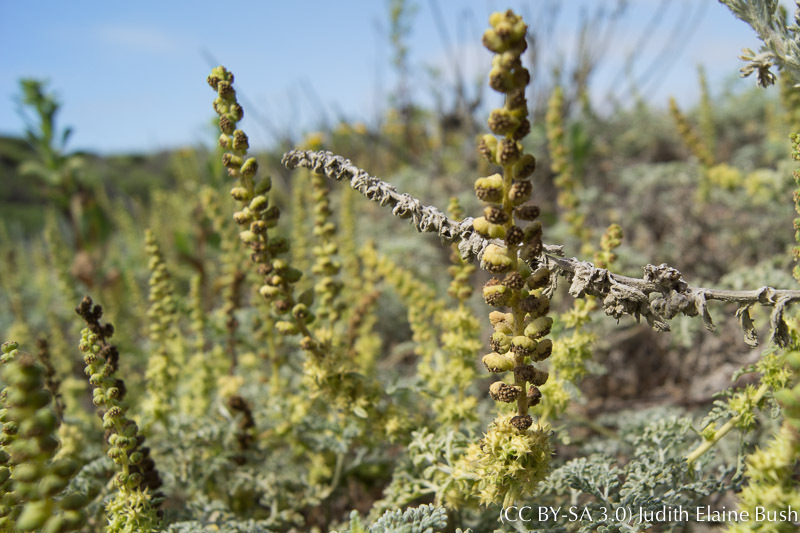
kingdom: Plantae
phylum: Tracheophyta
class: Magnoliopsida
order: Asterales
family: Asteraceae
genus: Ambrosia
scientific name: Ambrosia chamissonis
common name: Beachbur
